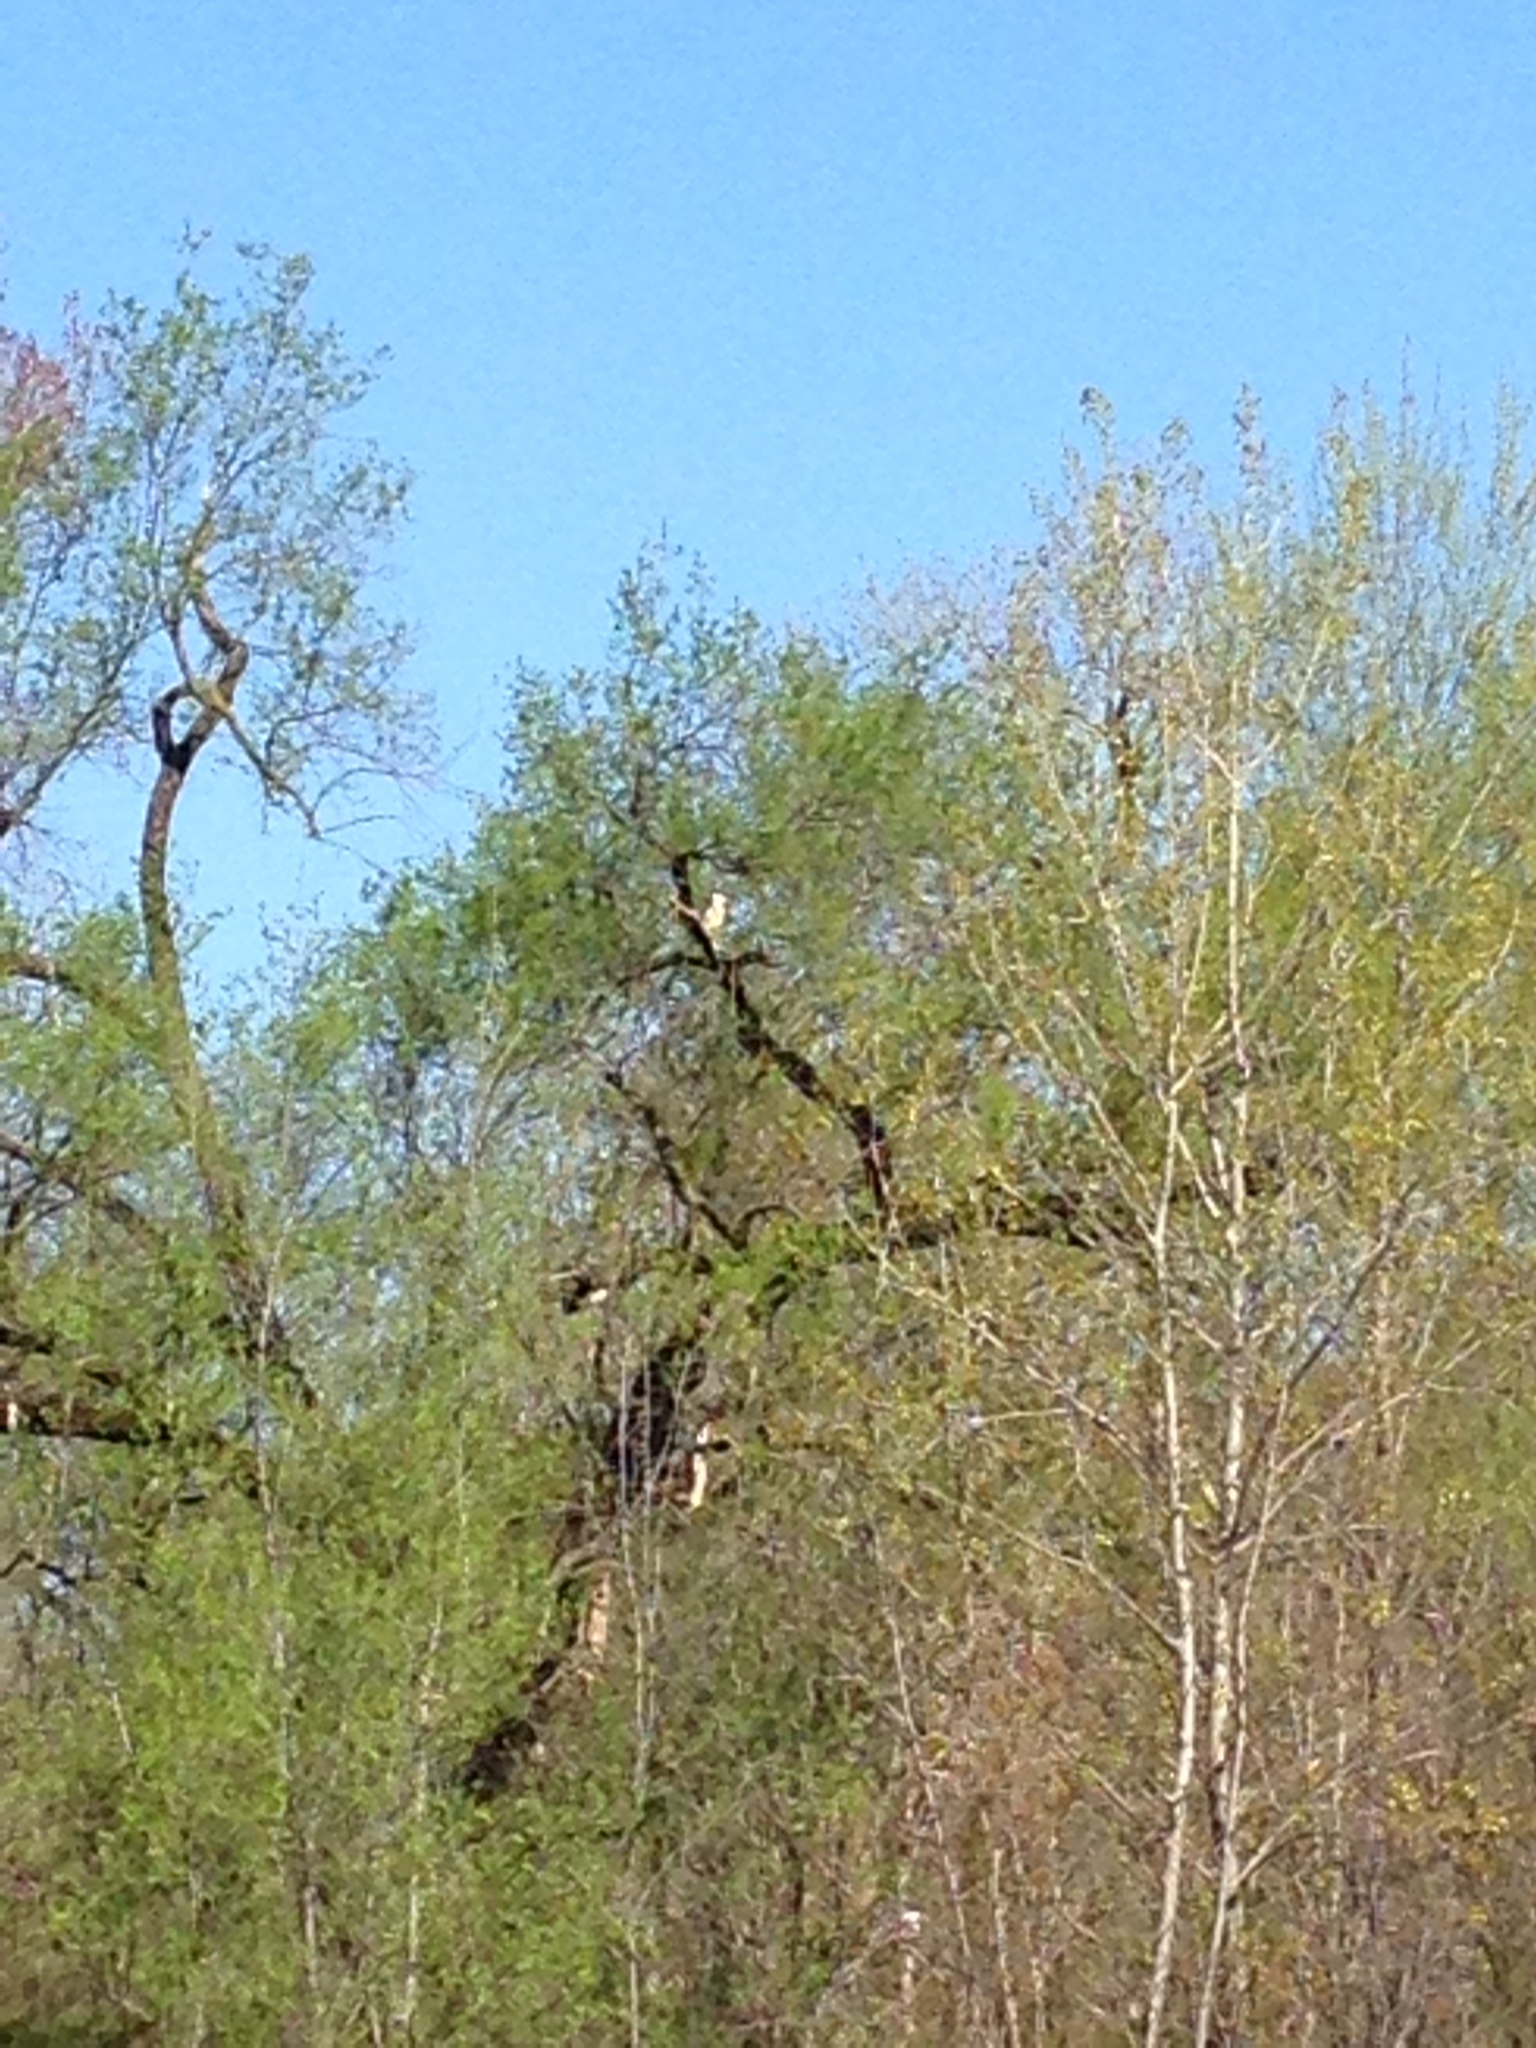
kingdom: Animalia
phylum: Chordata
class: Aves
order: Pelecaniformes
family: Ardeidae
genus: Nycticorax
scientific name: Nycticorax nycticorax
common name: Black-crowned night heron
